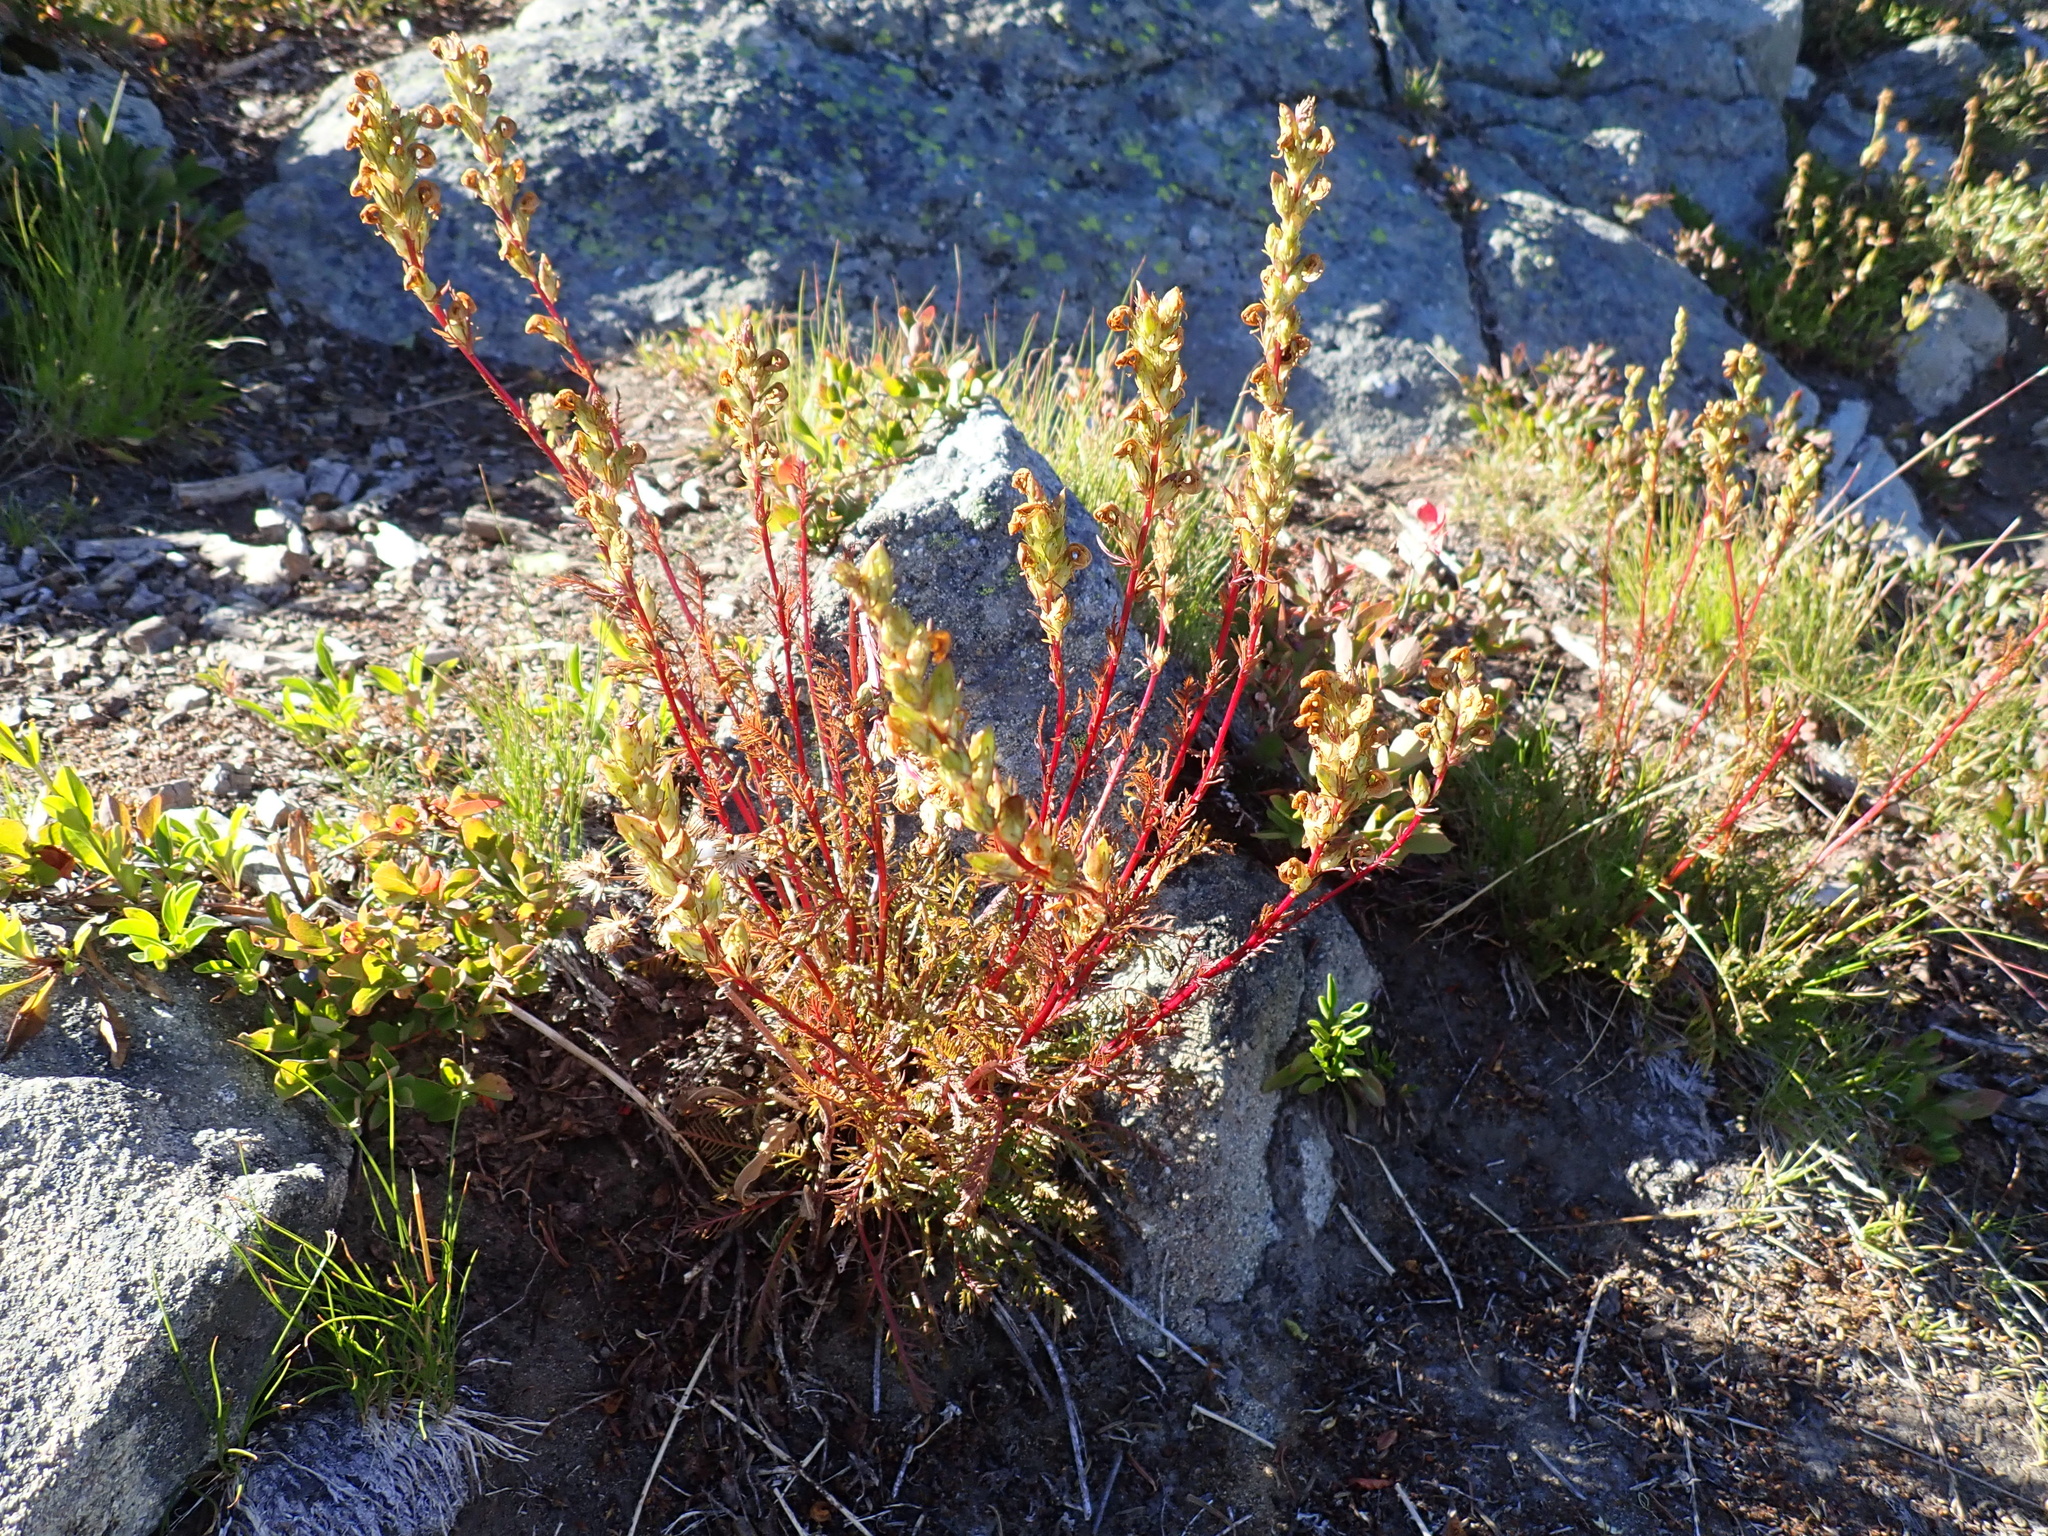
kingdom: Plantae
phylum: Tracheophyta
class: Magnoliopsida
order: Lamiales
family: Orobanchaceae
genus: Pedicularis
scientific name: Pedicularis contorta
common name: Coiled lousewort
